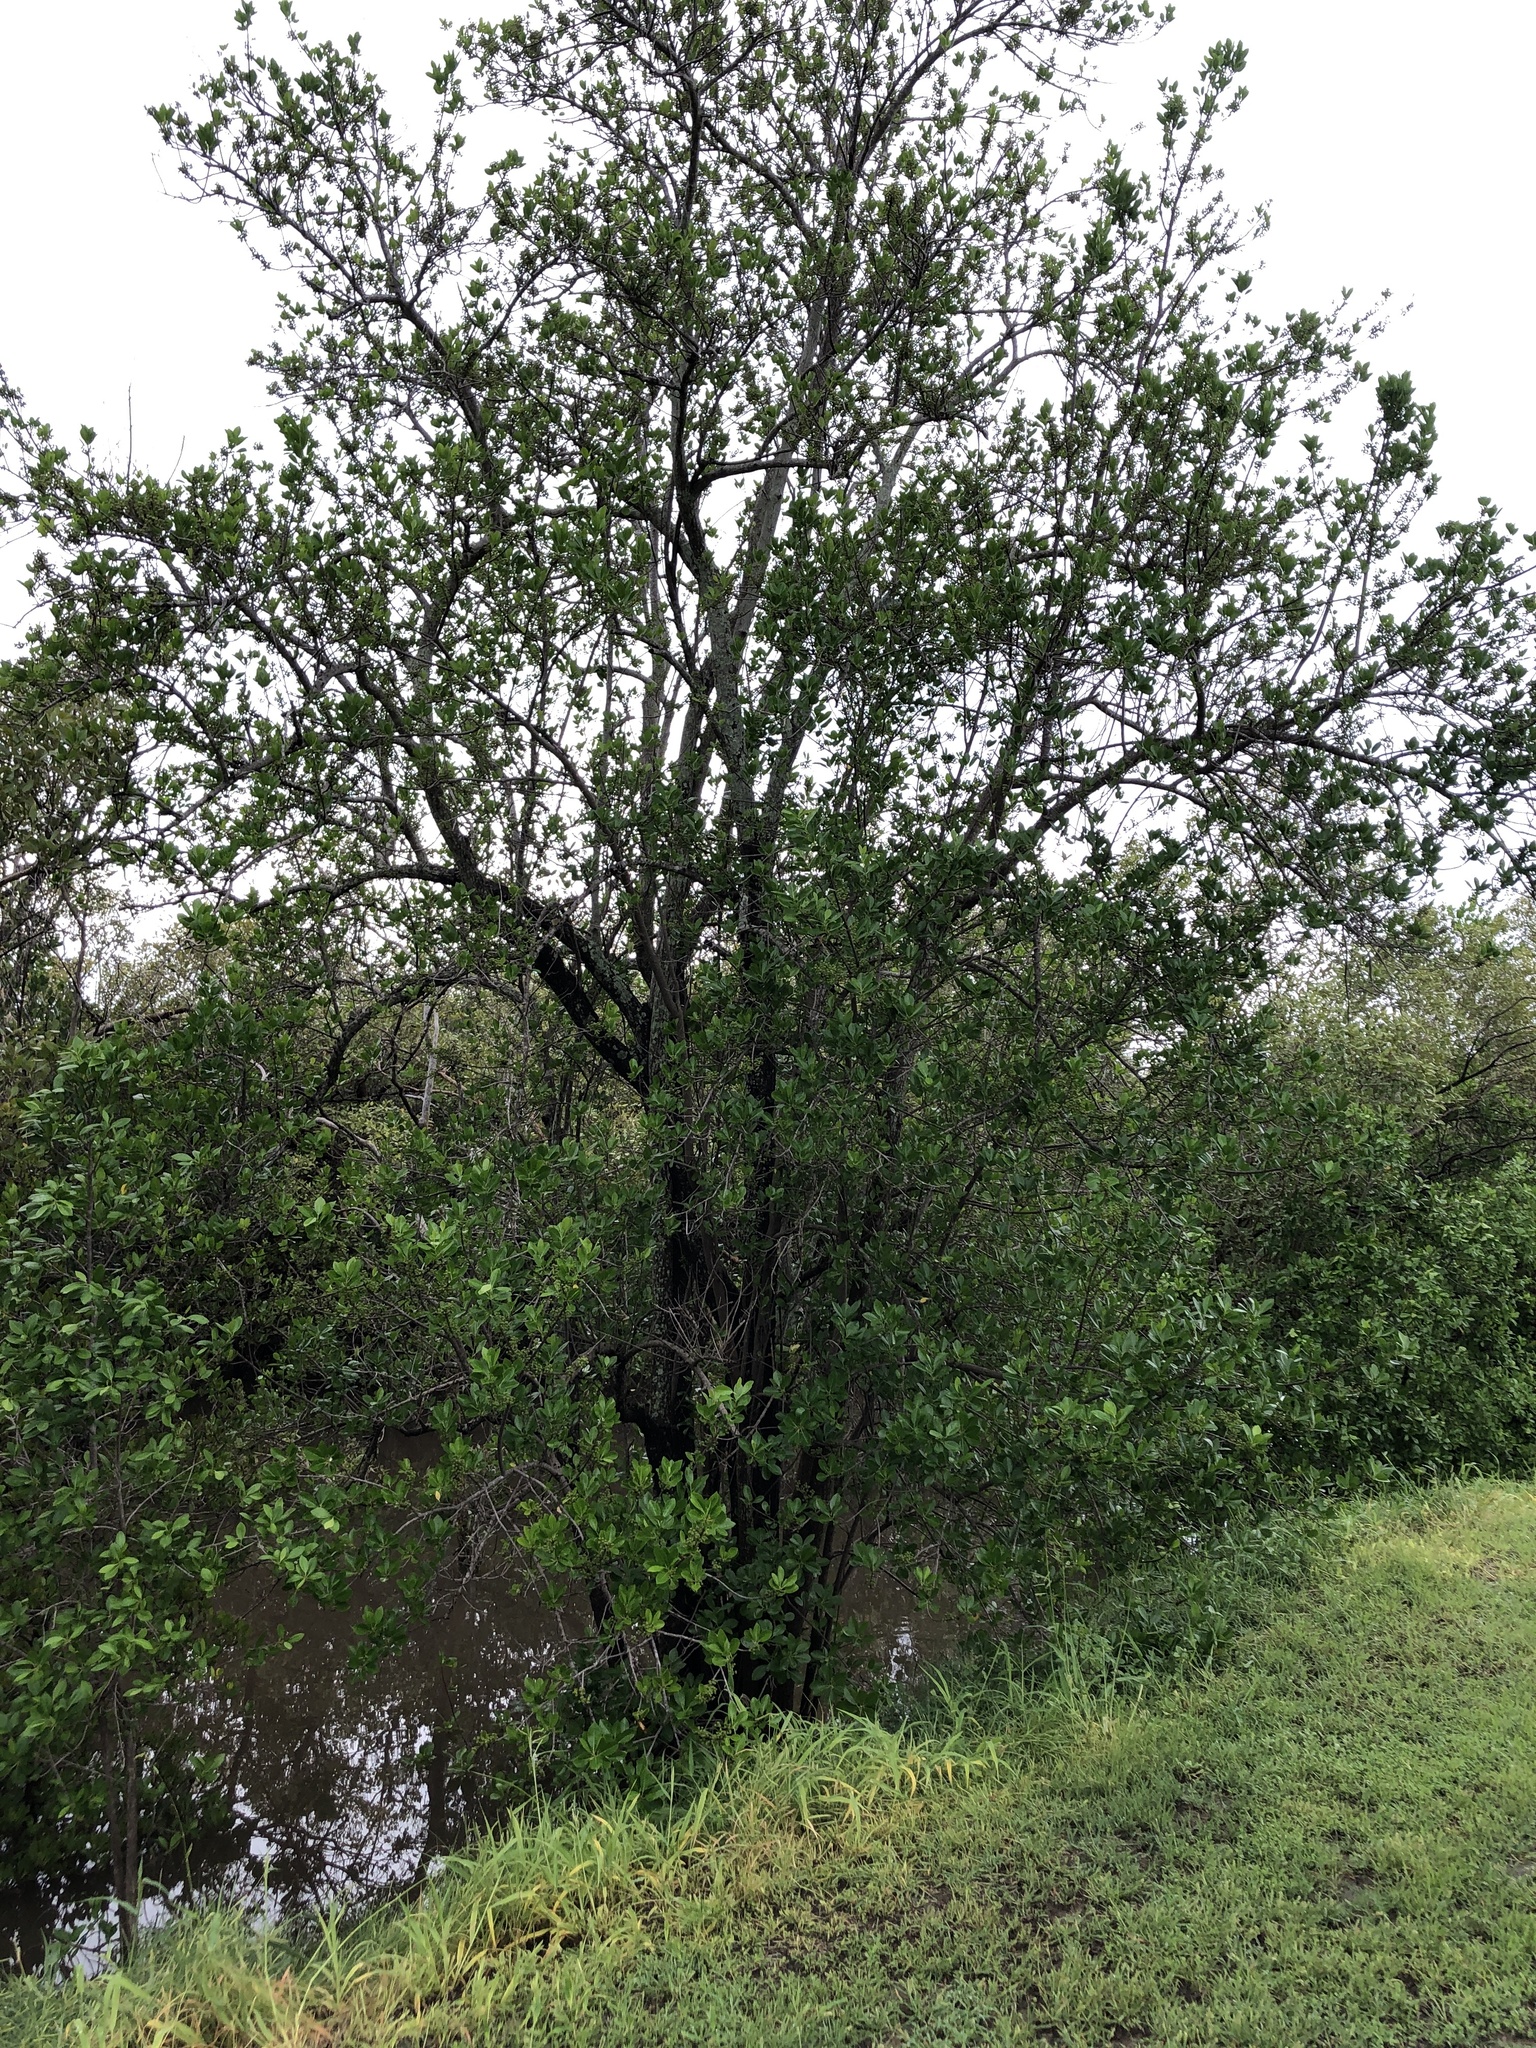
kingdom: Plantae
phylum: Tracheophyta
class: Magnoliopsida
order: Malpighiales
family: Euphorbiaceae
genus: Excoecaria
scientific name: Excoecaria agallocha
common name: River poisontree
